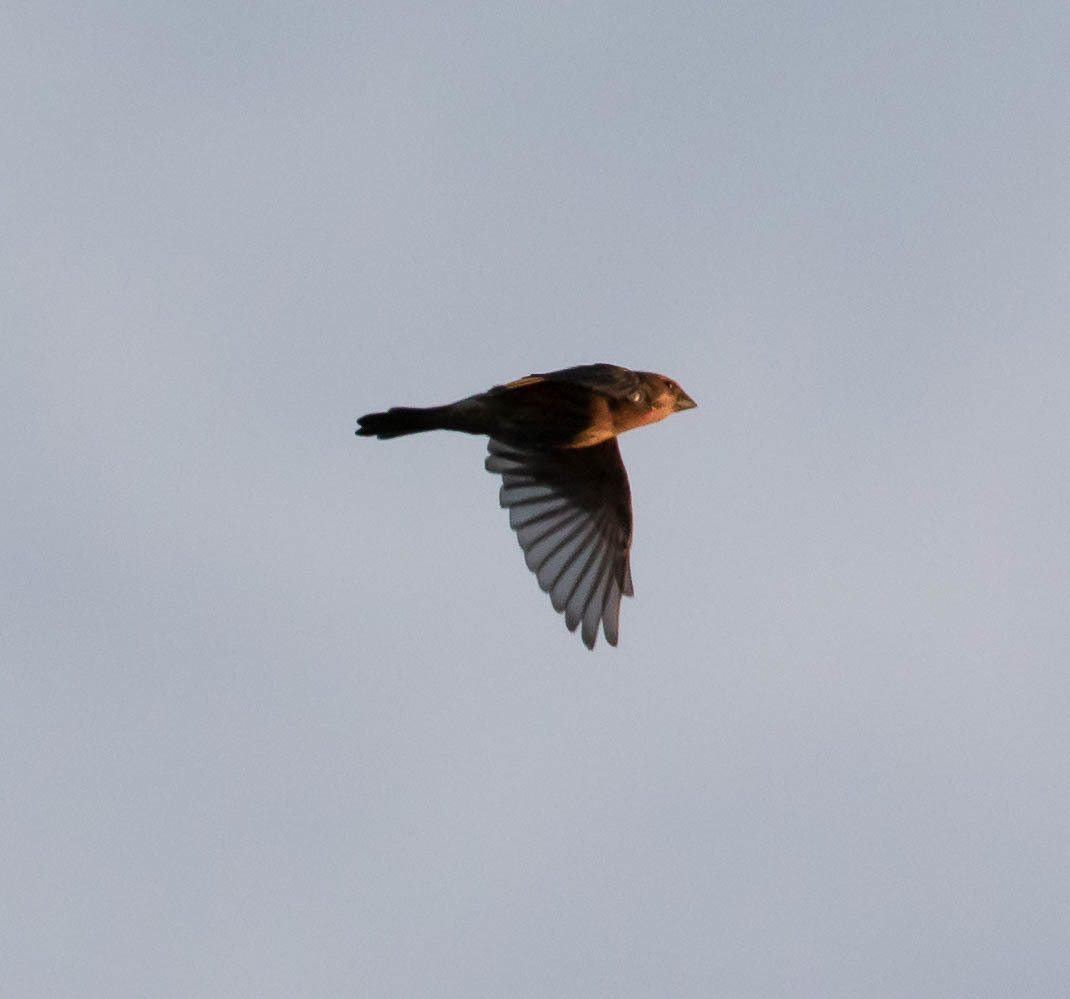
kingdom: Animalia
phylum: Chordata
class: Aves
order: Passeriformes
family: Fringillidae
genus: Haemorhous
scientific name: Haemorhous mexicanus
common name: House finch
